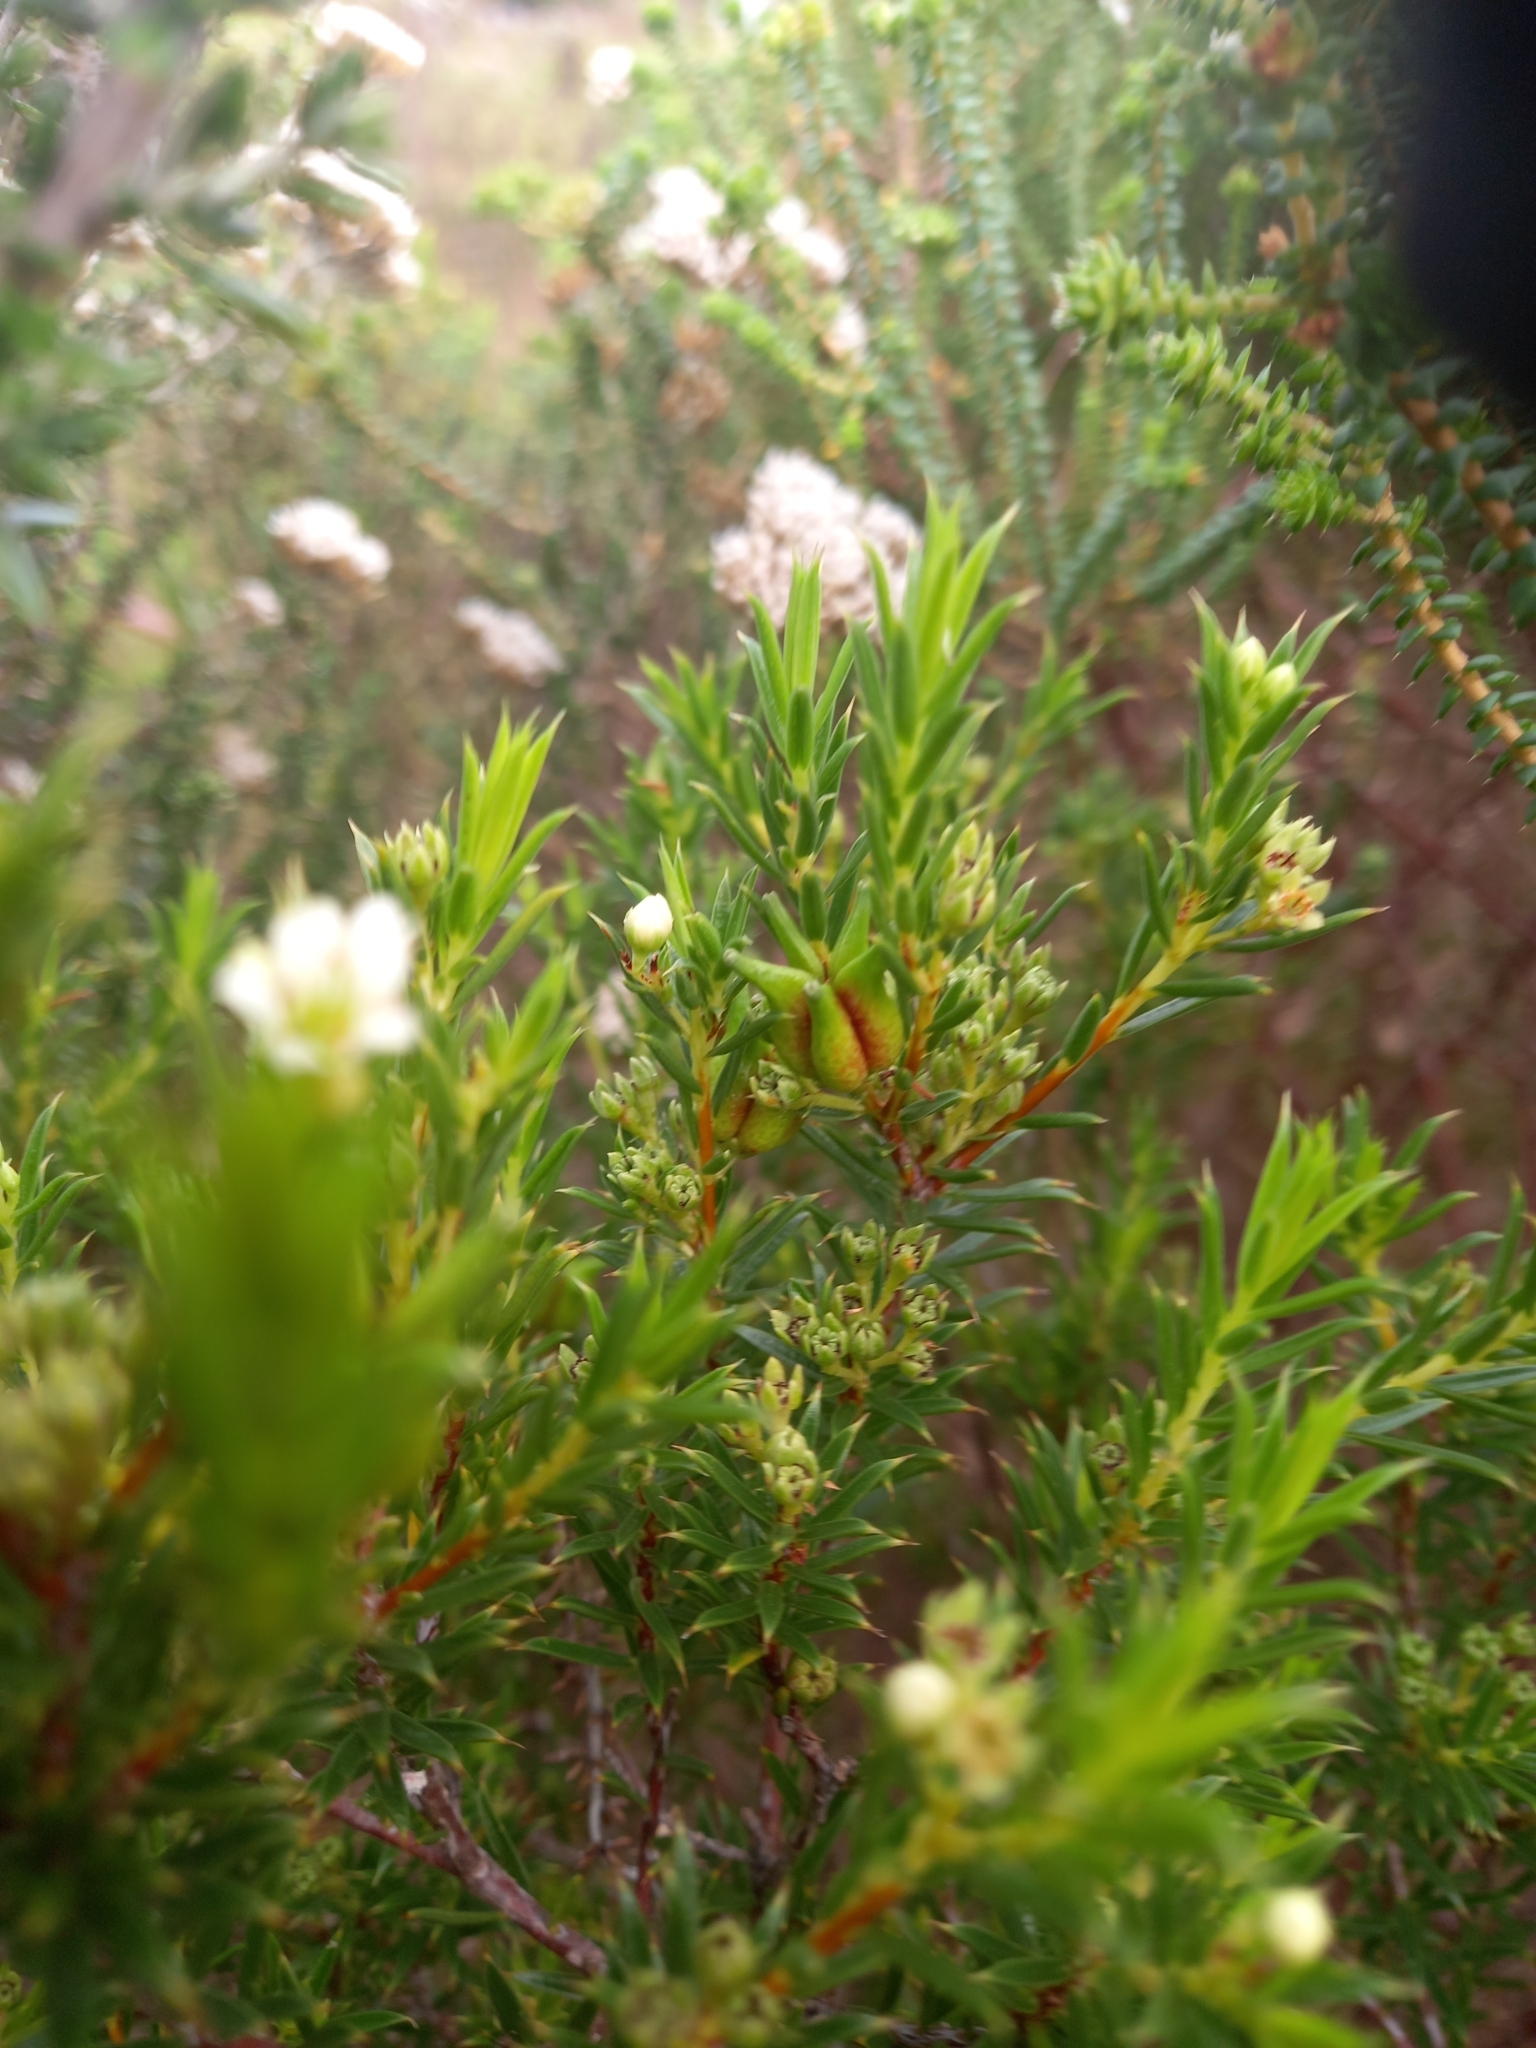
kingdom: Plantae
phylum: Tracheophyta
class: Magnoliopsida
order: Sapindales
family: Rutaceae
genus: Diosma
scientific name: Diosma aristata
